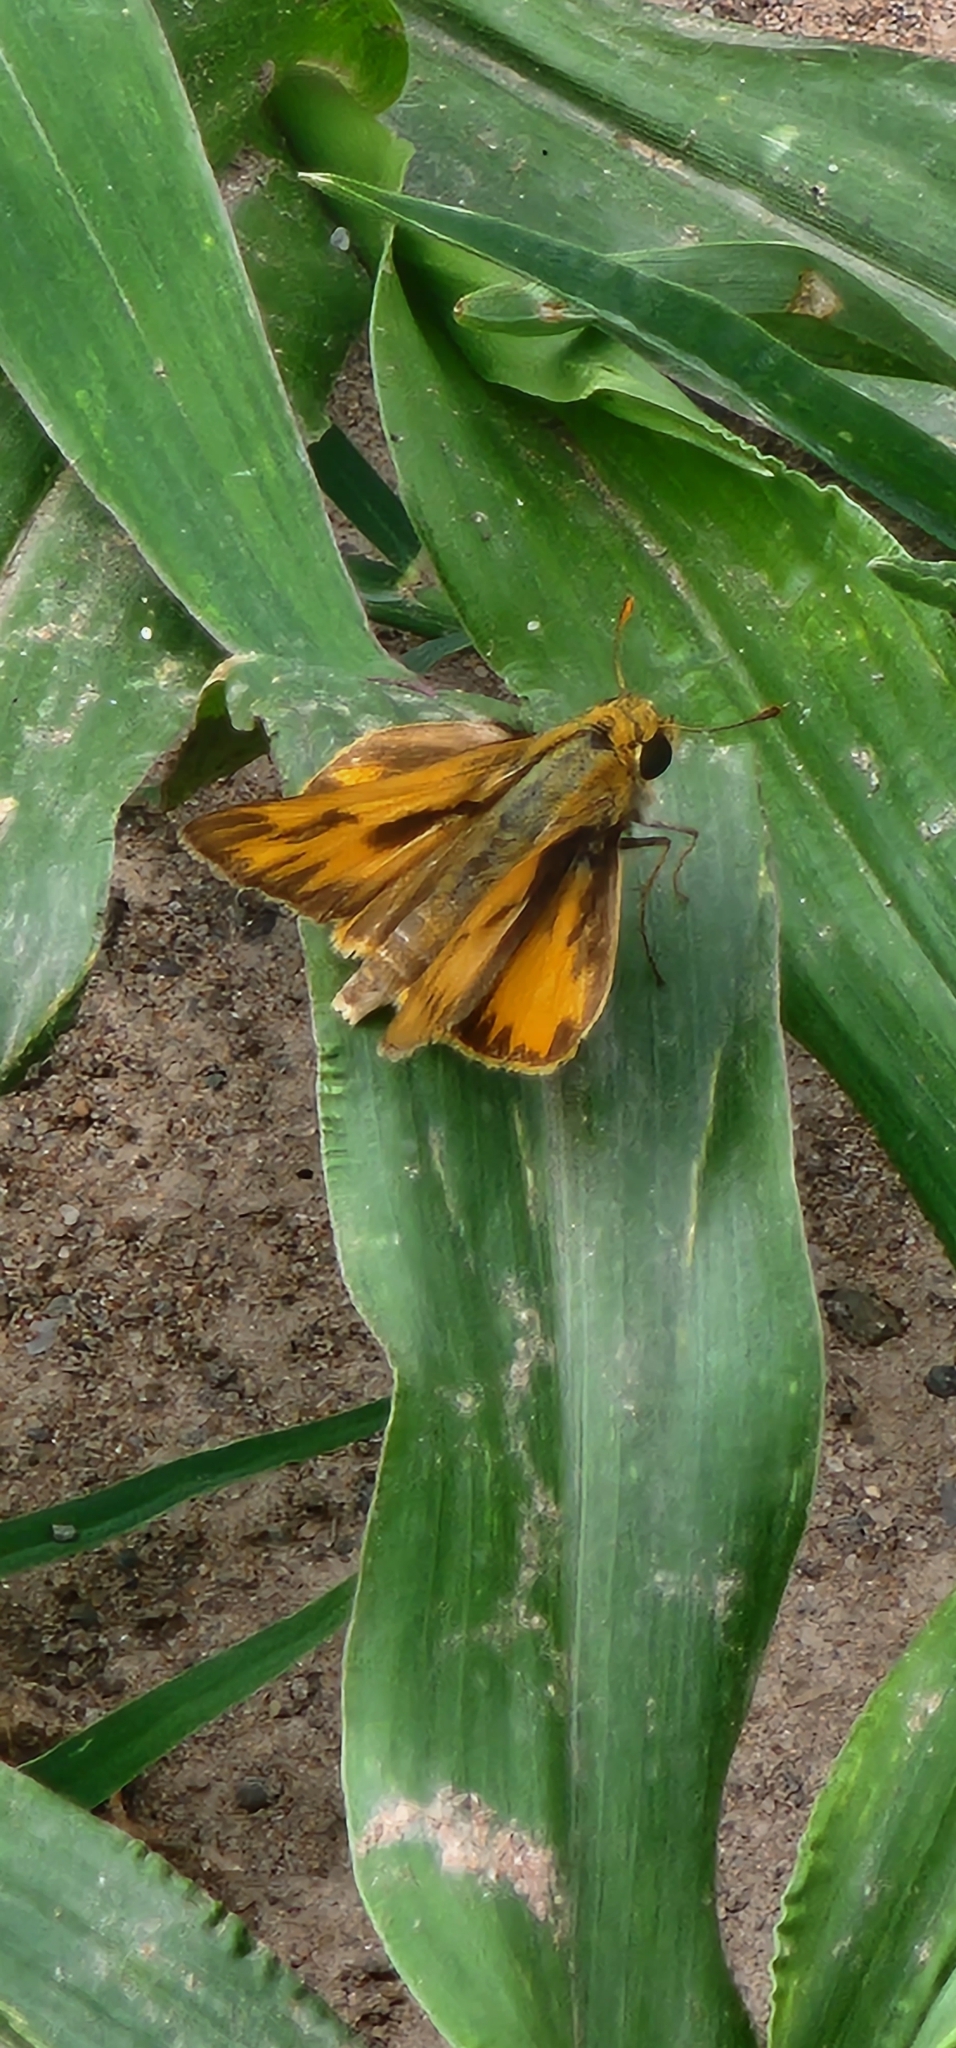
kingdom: Animalia
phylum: Arthropoda
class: Insecta
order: Lepidoptera
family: Hesperiidae
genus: Hylephila
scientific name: Hylephila phyleus
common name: Fiery skipper
